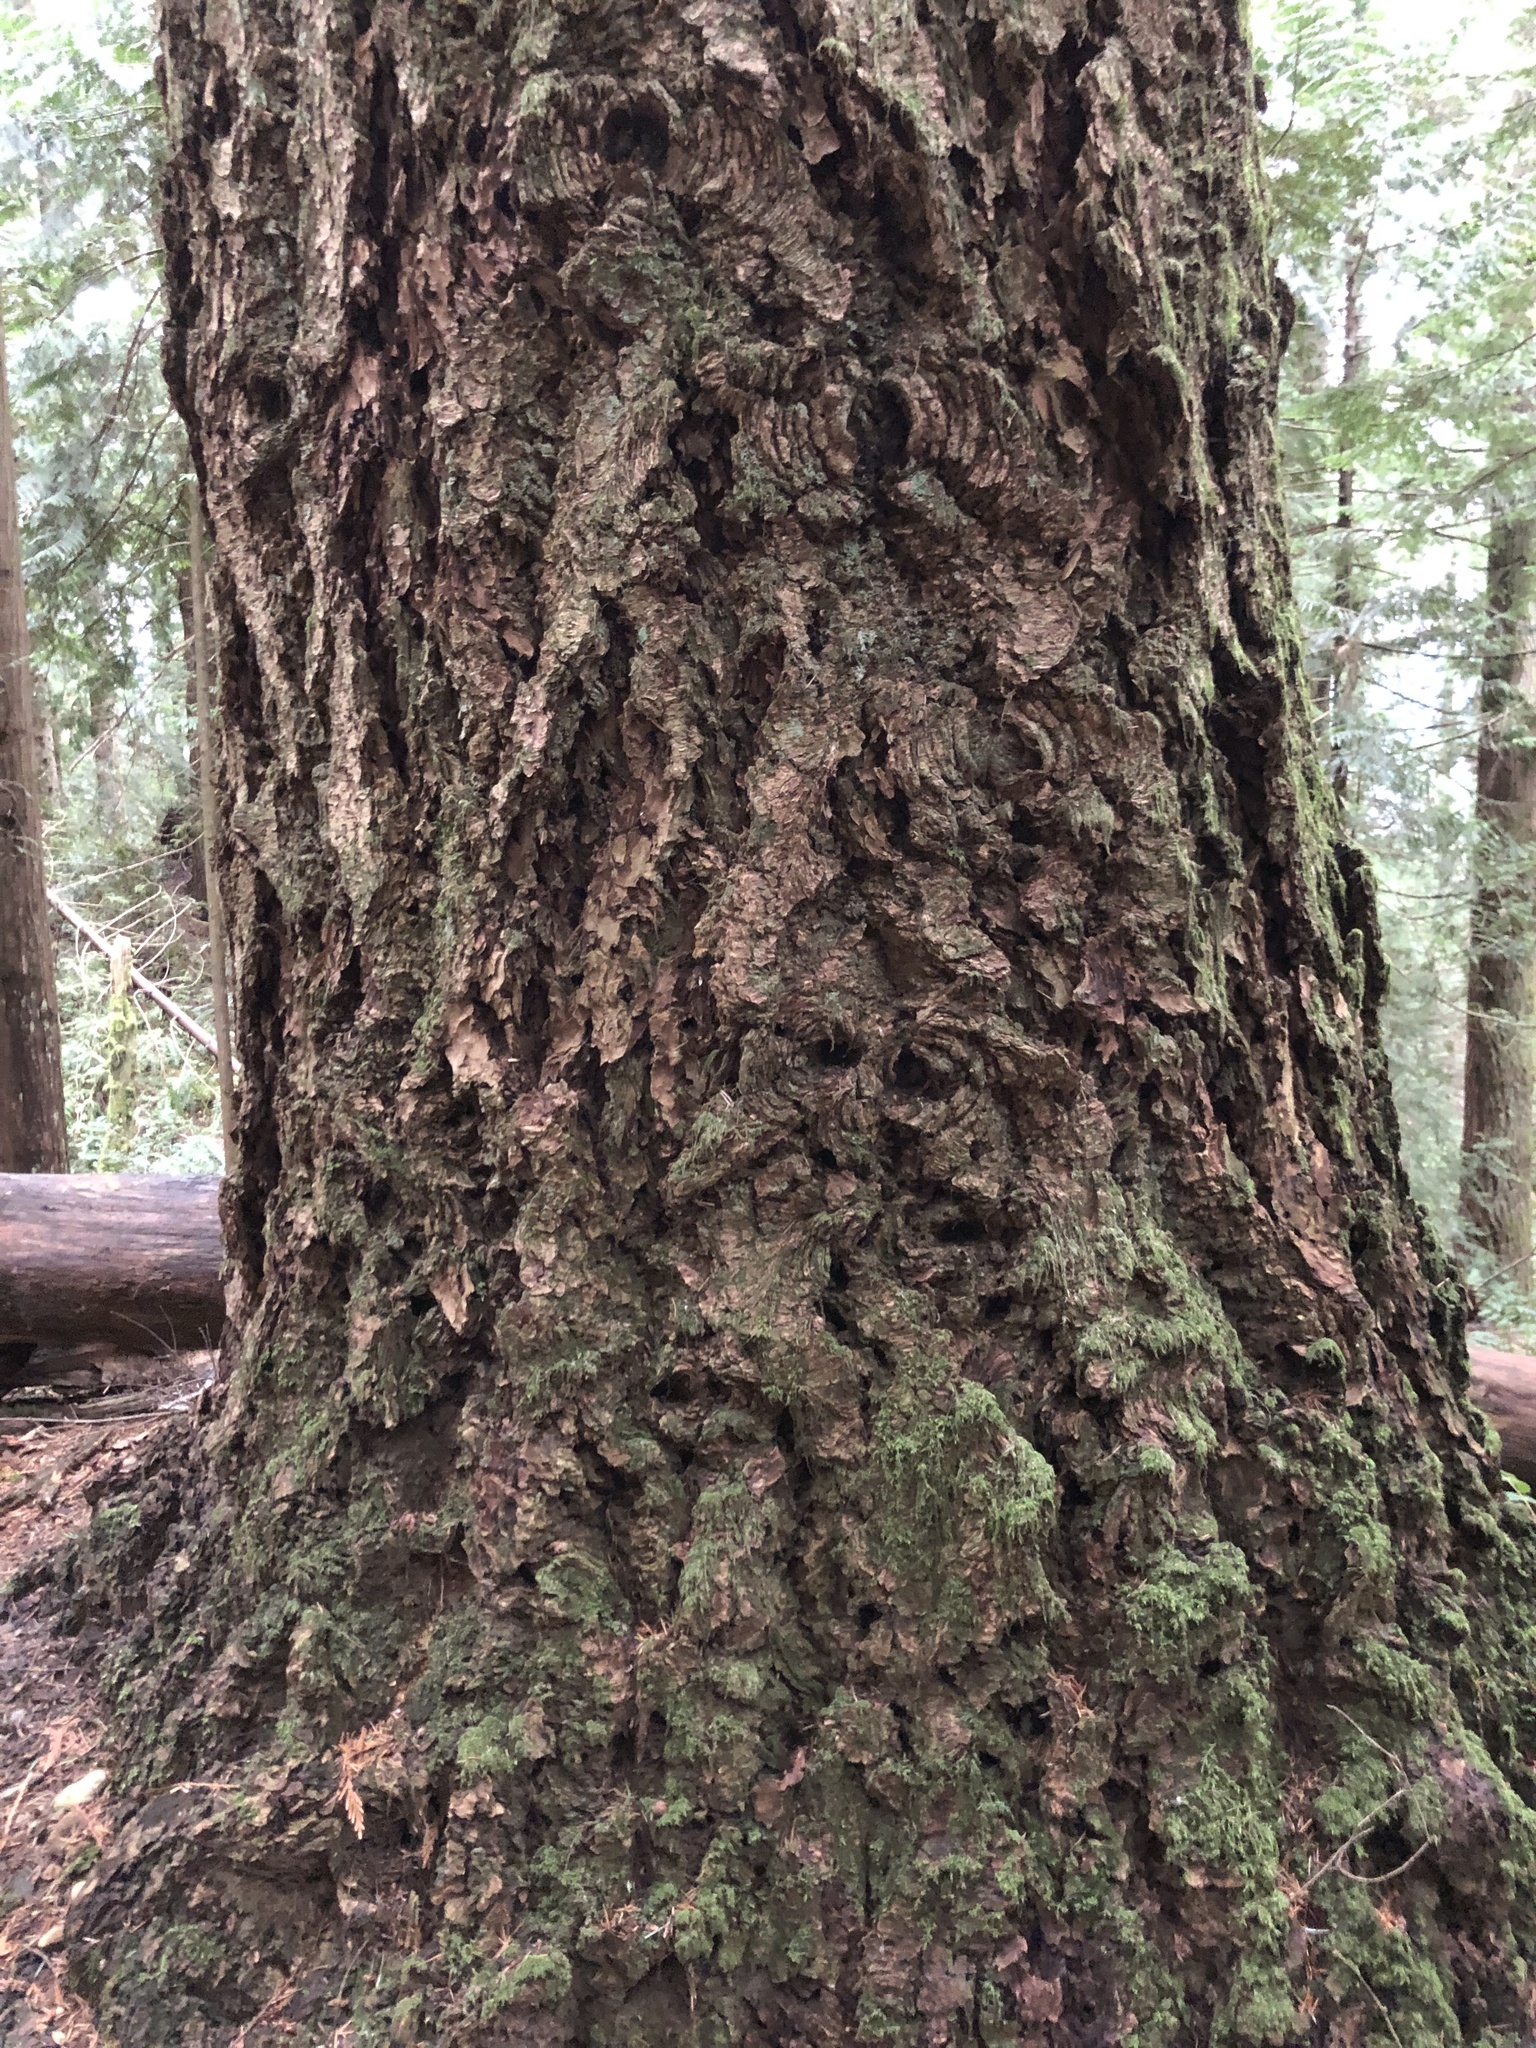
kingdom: Plantae
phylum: Tracheophyta
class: Pinopsida
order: Pinales
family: Pinaceae
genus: Pseudotsuga
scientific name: Pseudotsuga menziesii
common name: Douglas fir
